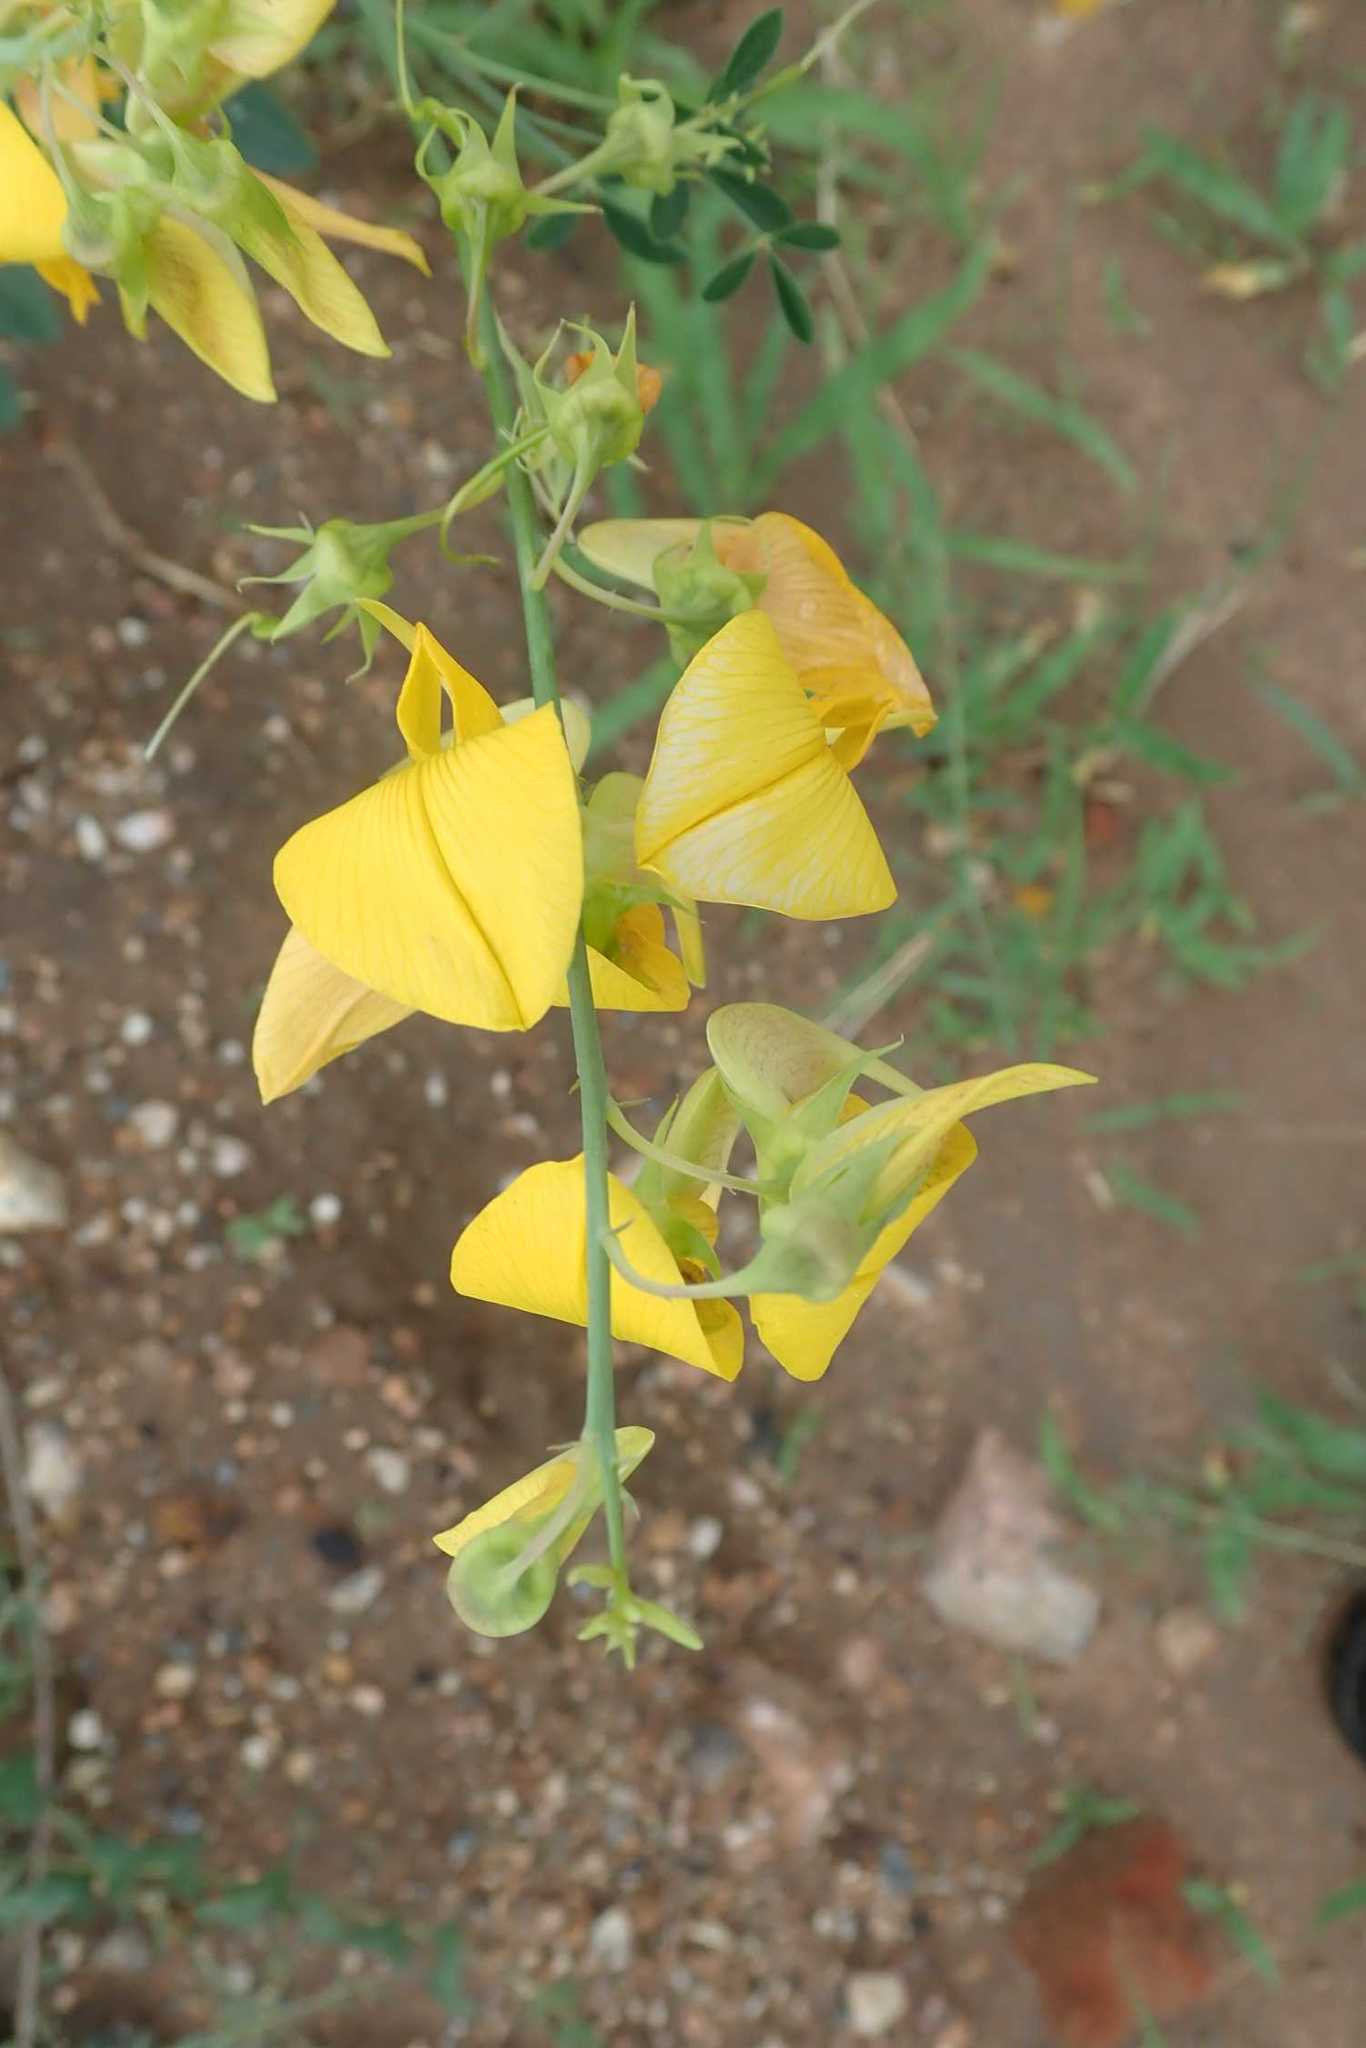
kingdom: Plantae
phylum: Tracheophyta
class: Magnoliopsida
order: Fabales
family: Fabaceae
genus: Crotalaria
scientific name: Crotalaria laburnifolia
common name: Birdflower
